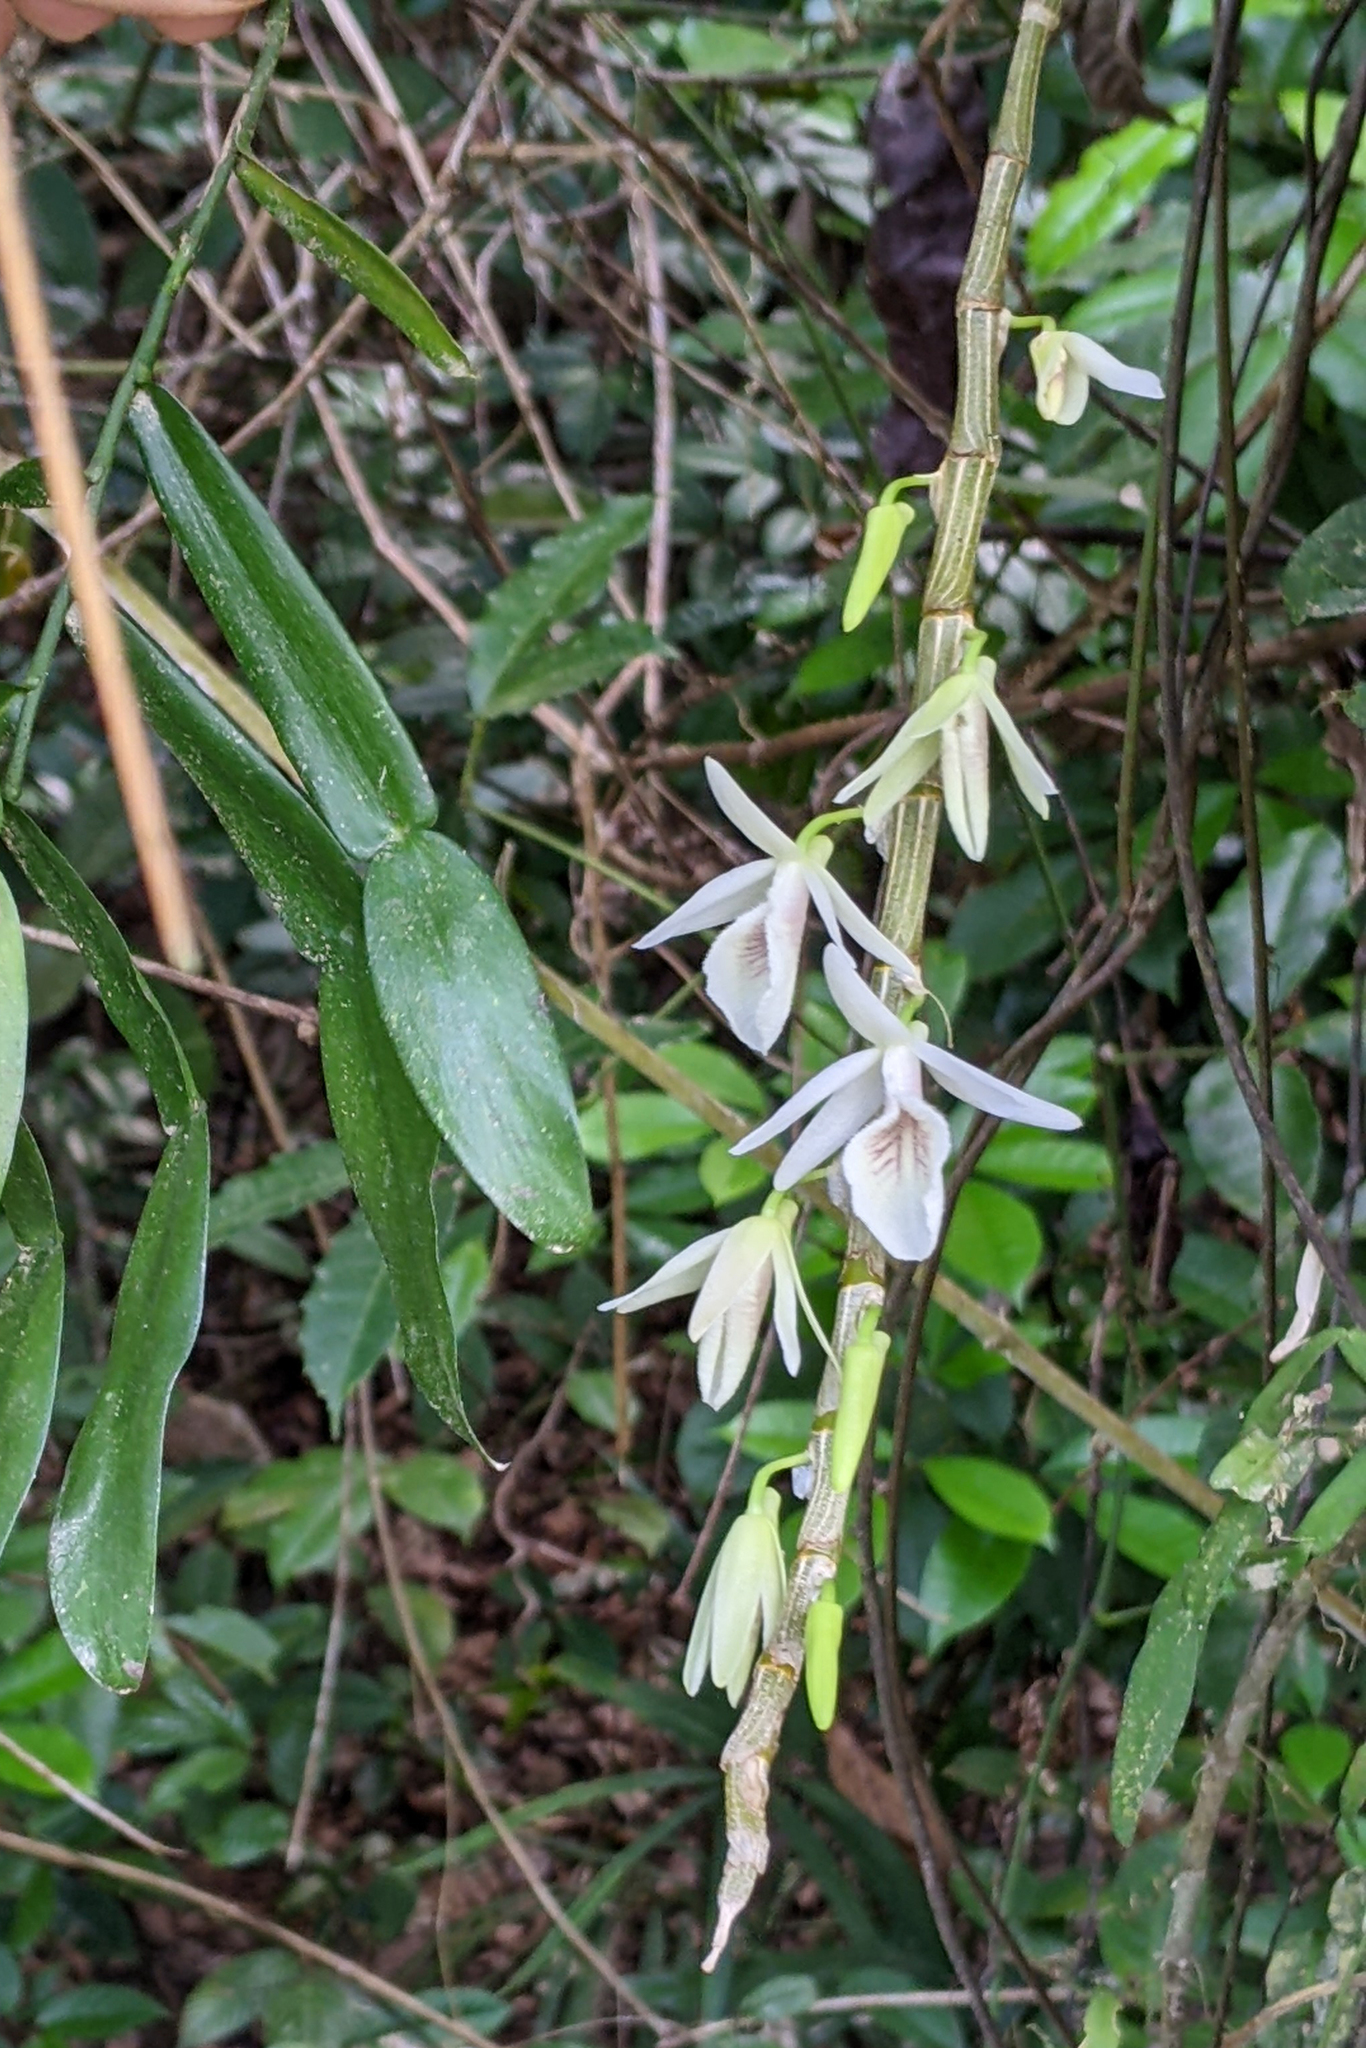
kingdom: Plantae
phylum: Tracheophyta
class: Liliopsida
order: Asparagales
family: Orchidaceae
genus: Dendrobium
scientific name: Dendrobium polyanthum
